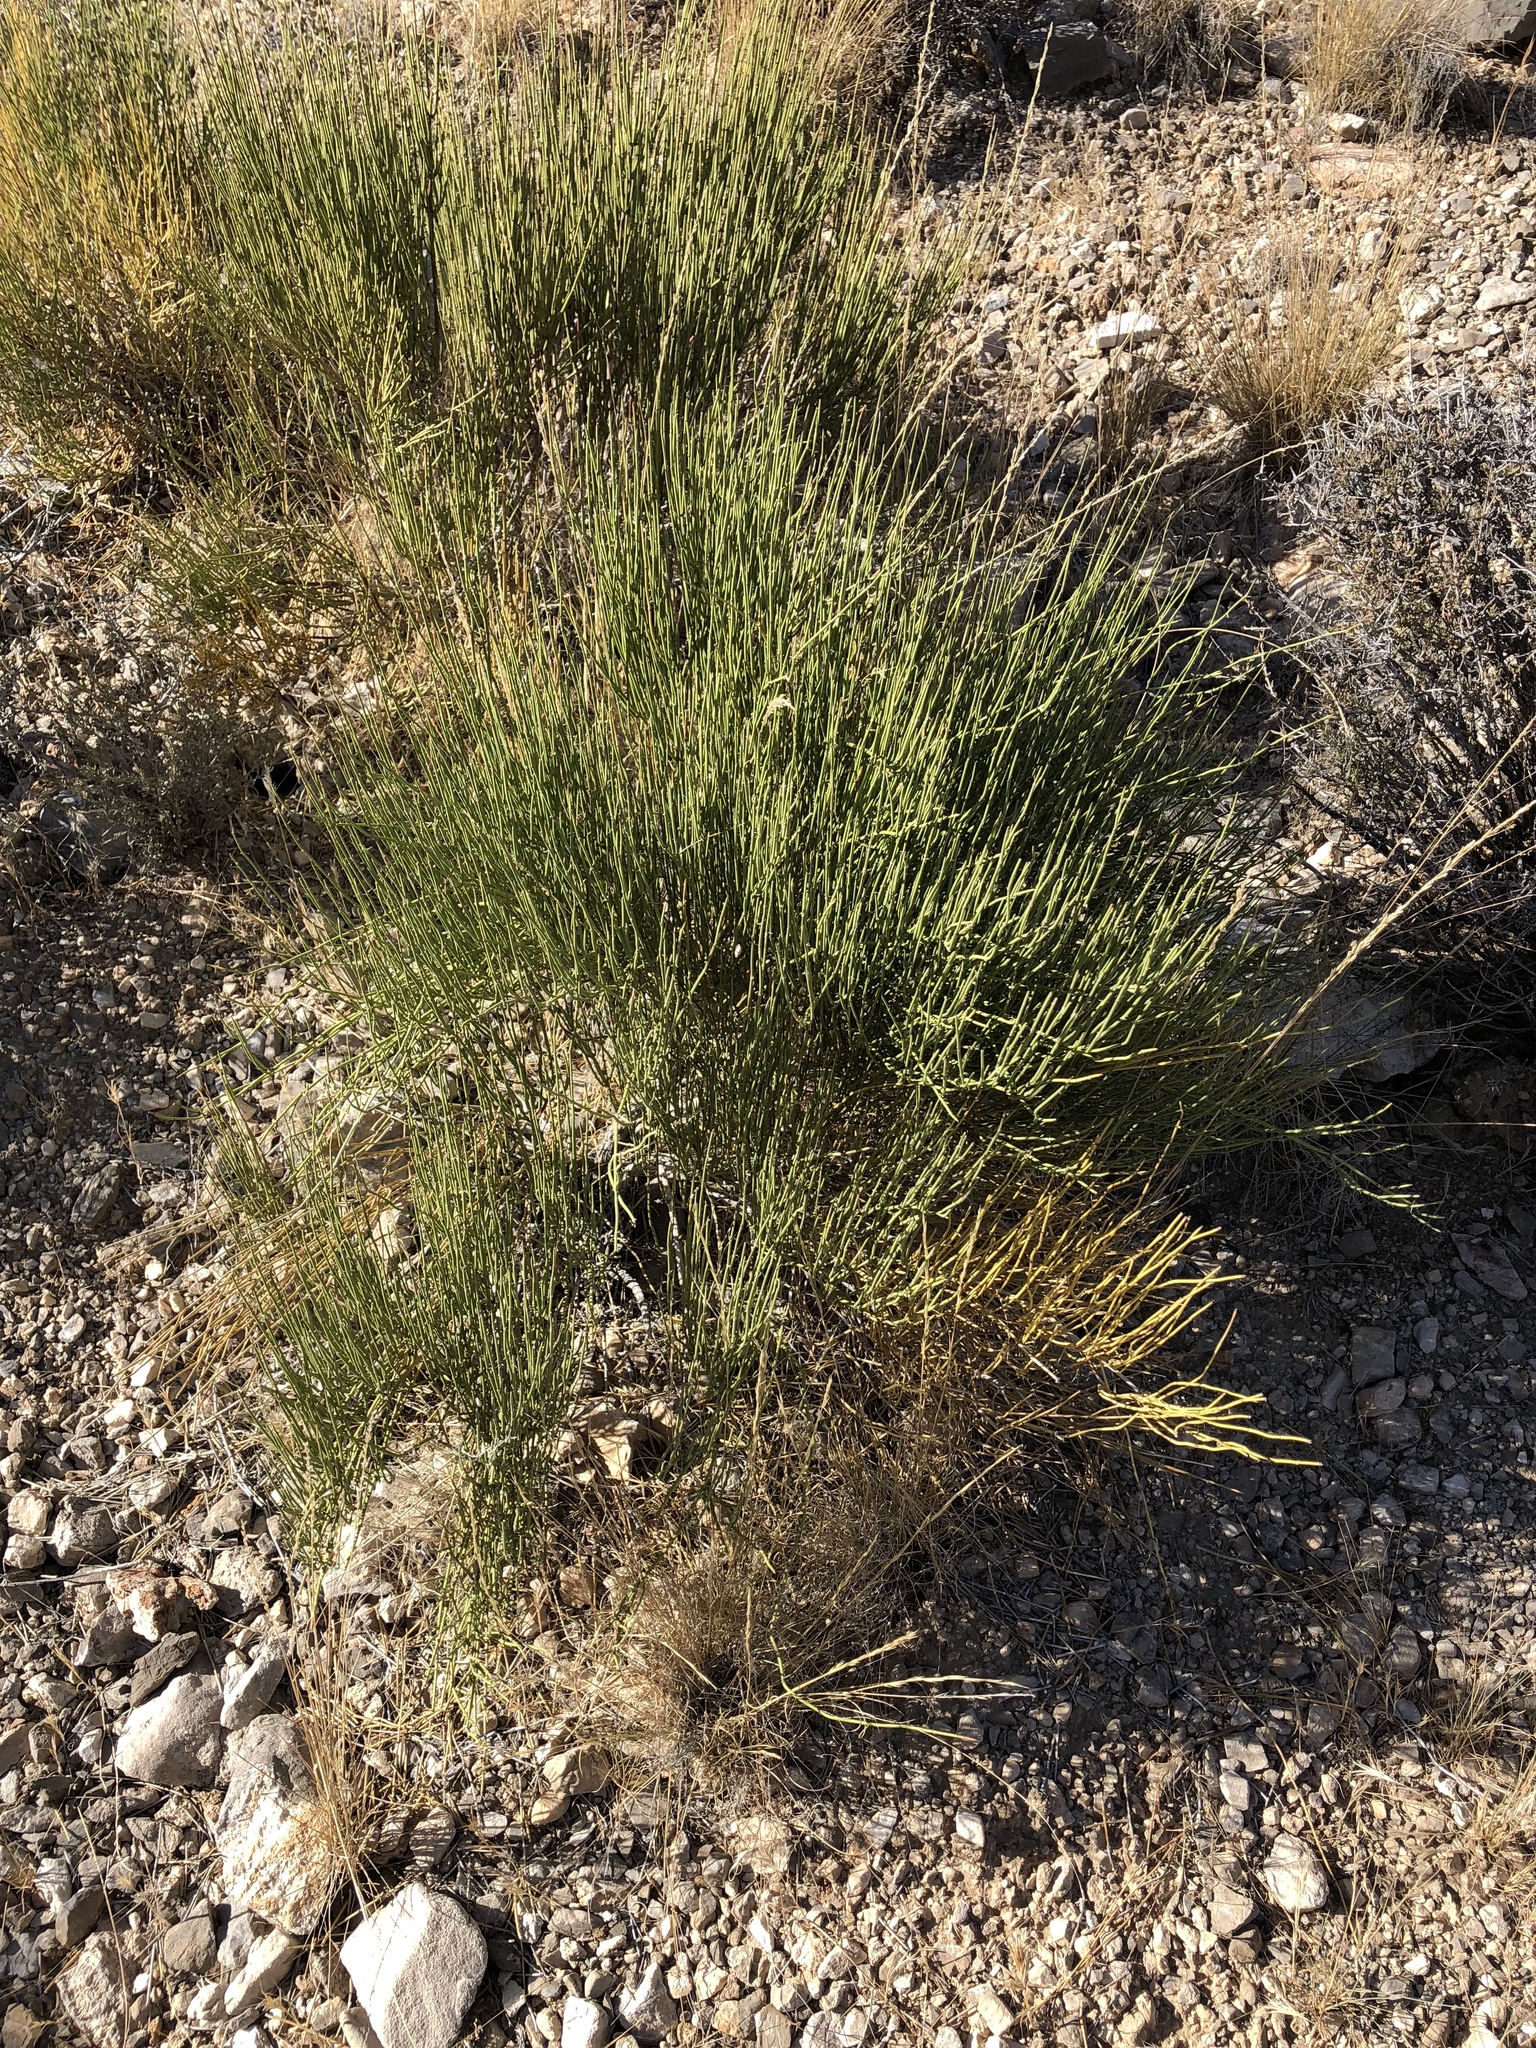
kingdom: Plantae
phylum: Tracheophyta
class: Gnetopsida
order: Ephedrales
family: Ephedraceae
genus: Ephedra
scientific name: Ephedra viridis
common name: Green ephedra
